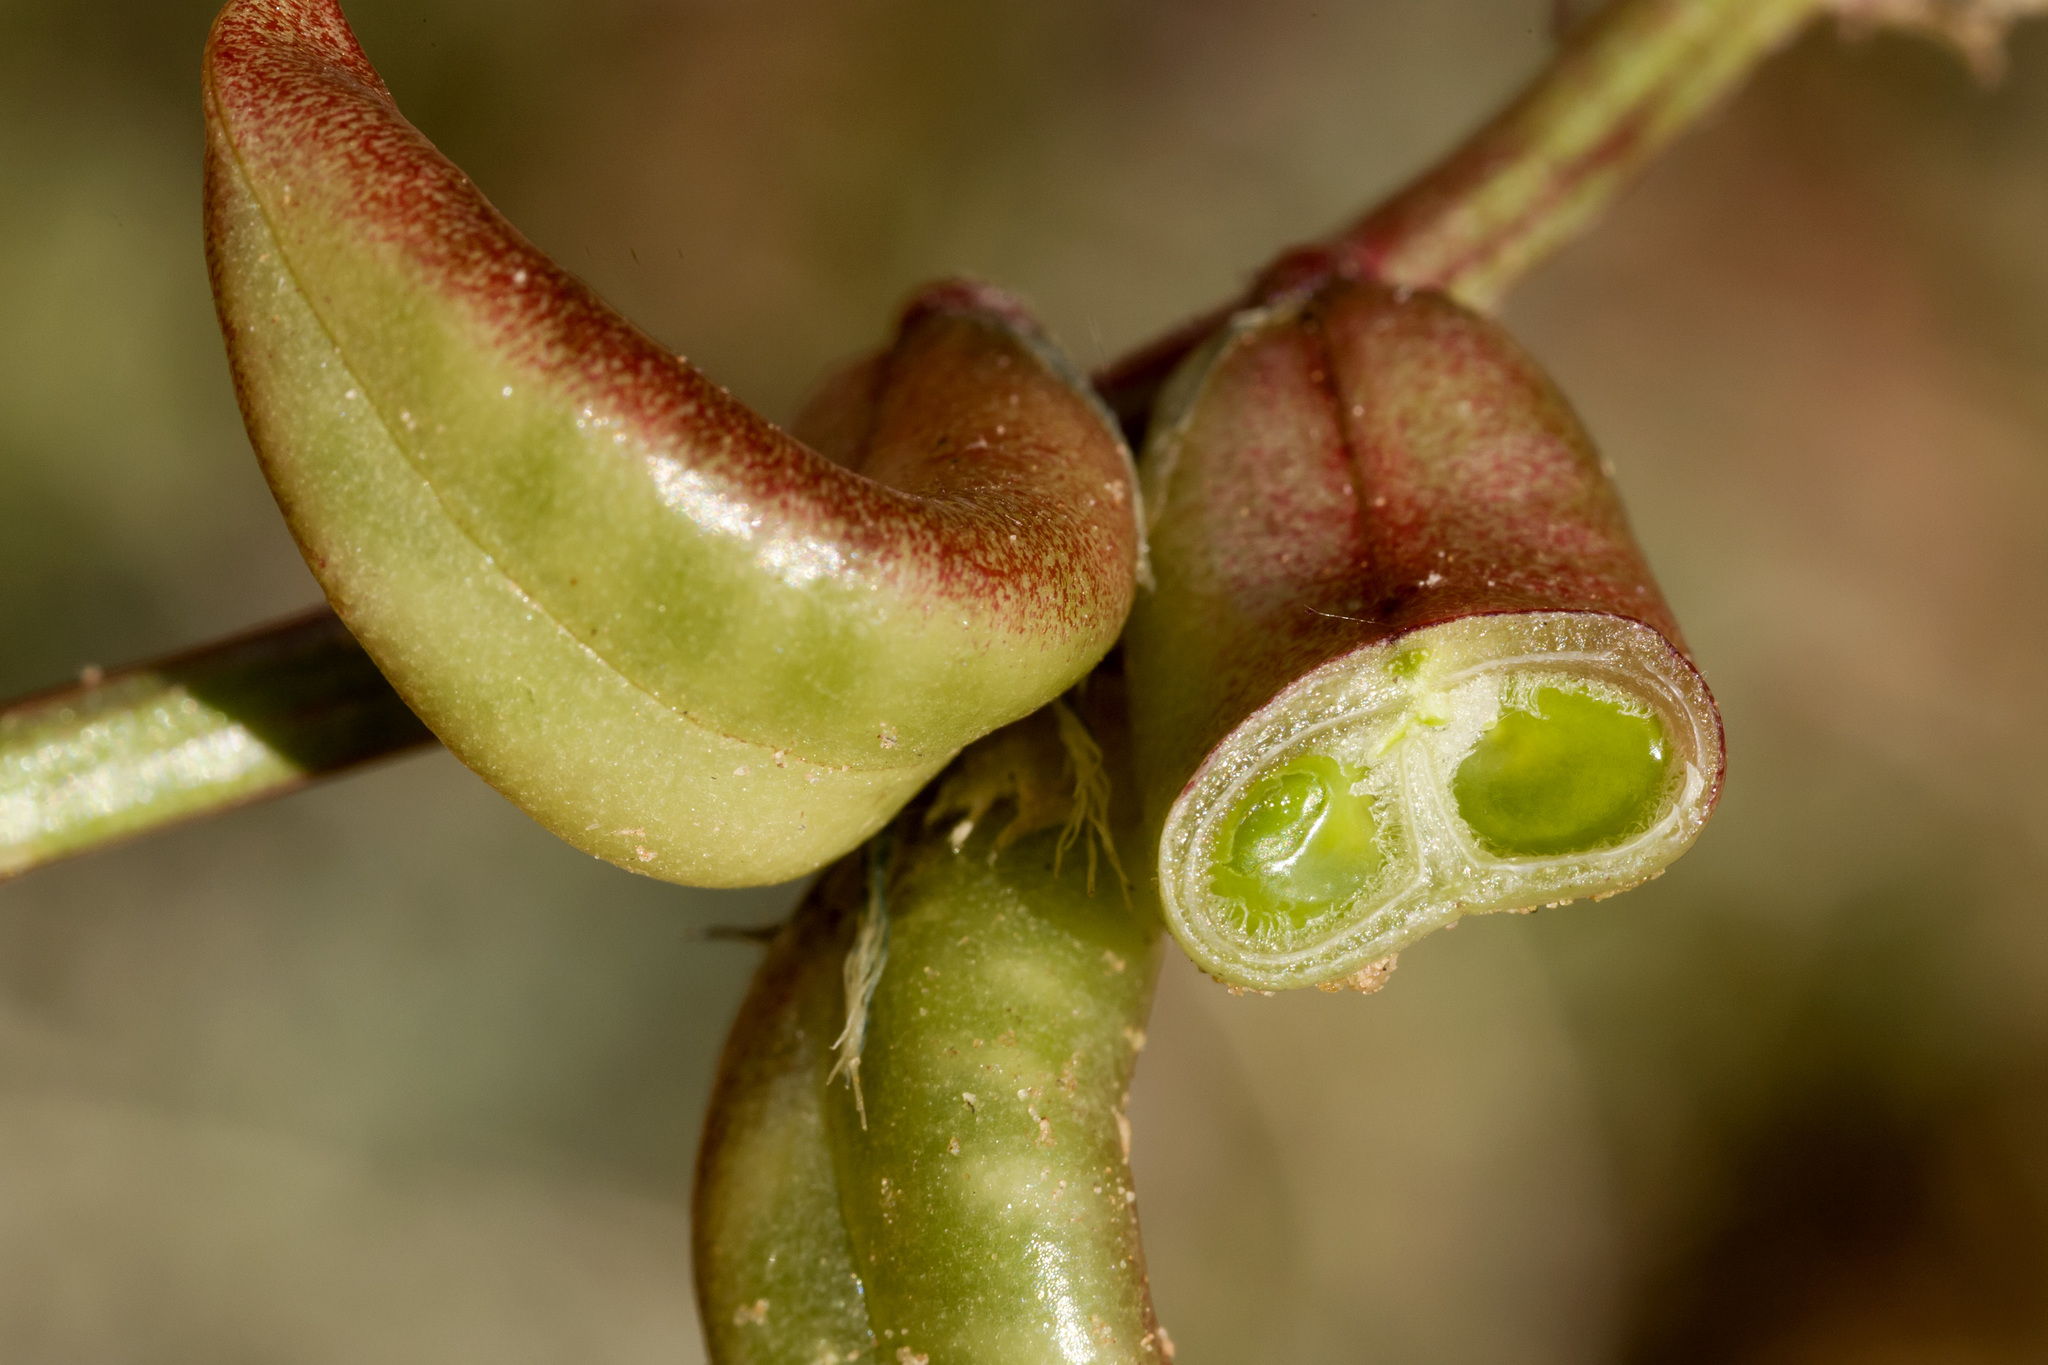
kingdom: Plantae
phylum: Tracheophyta
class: Magnoliopsida
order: Fabales
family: Fabaceae
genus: Astragalus
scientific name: Astragalus lentiginosus
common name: Freckled milkvetch
